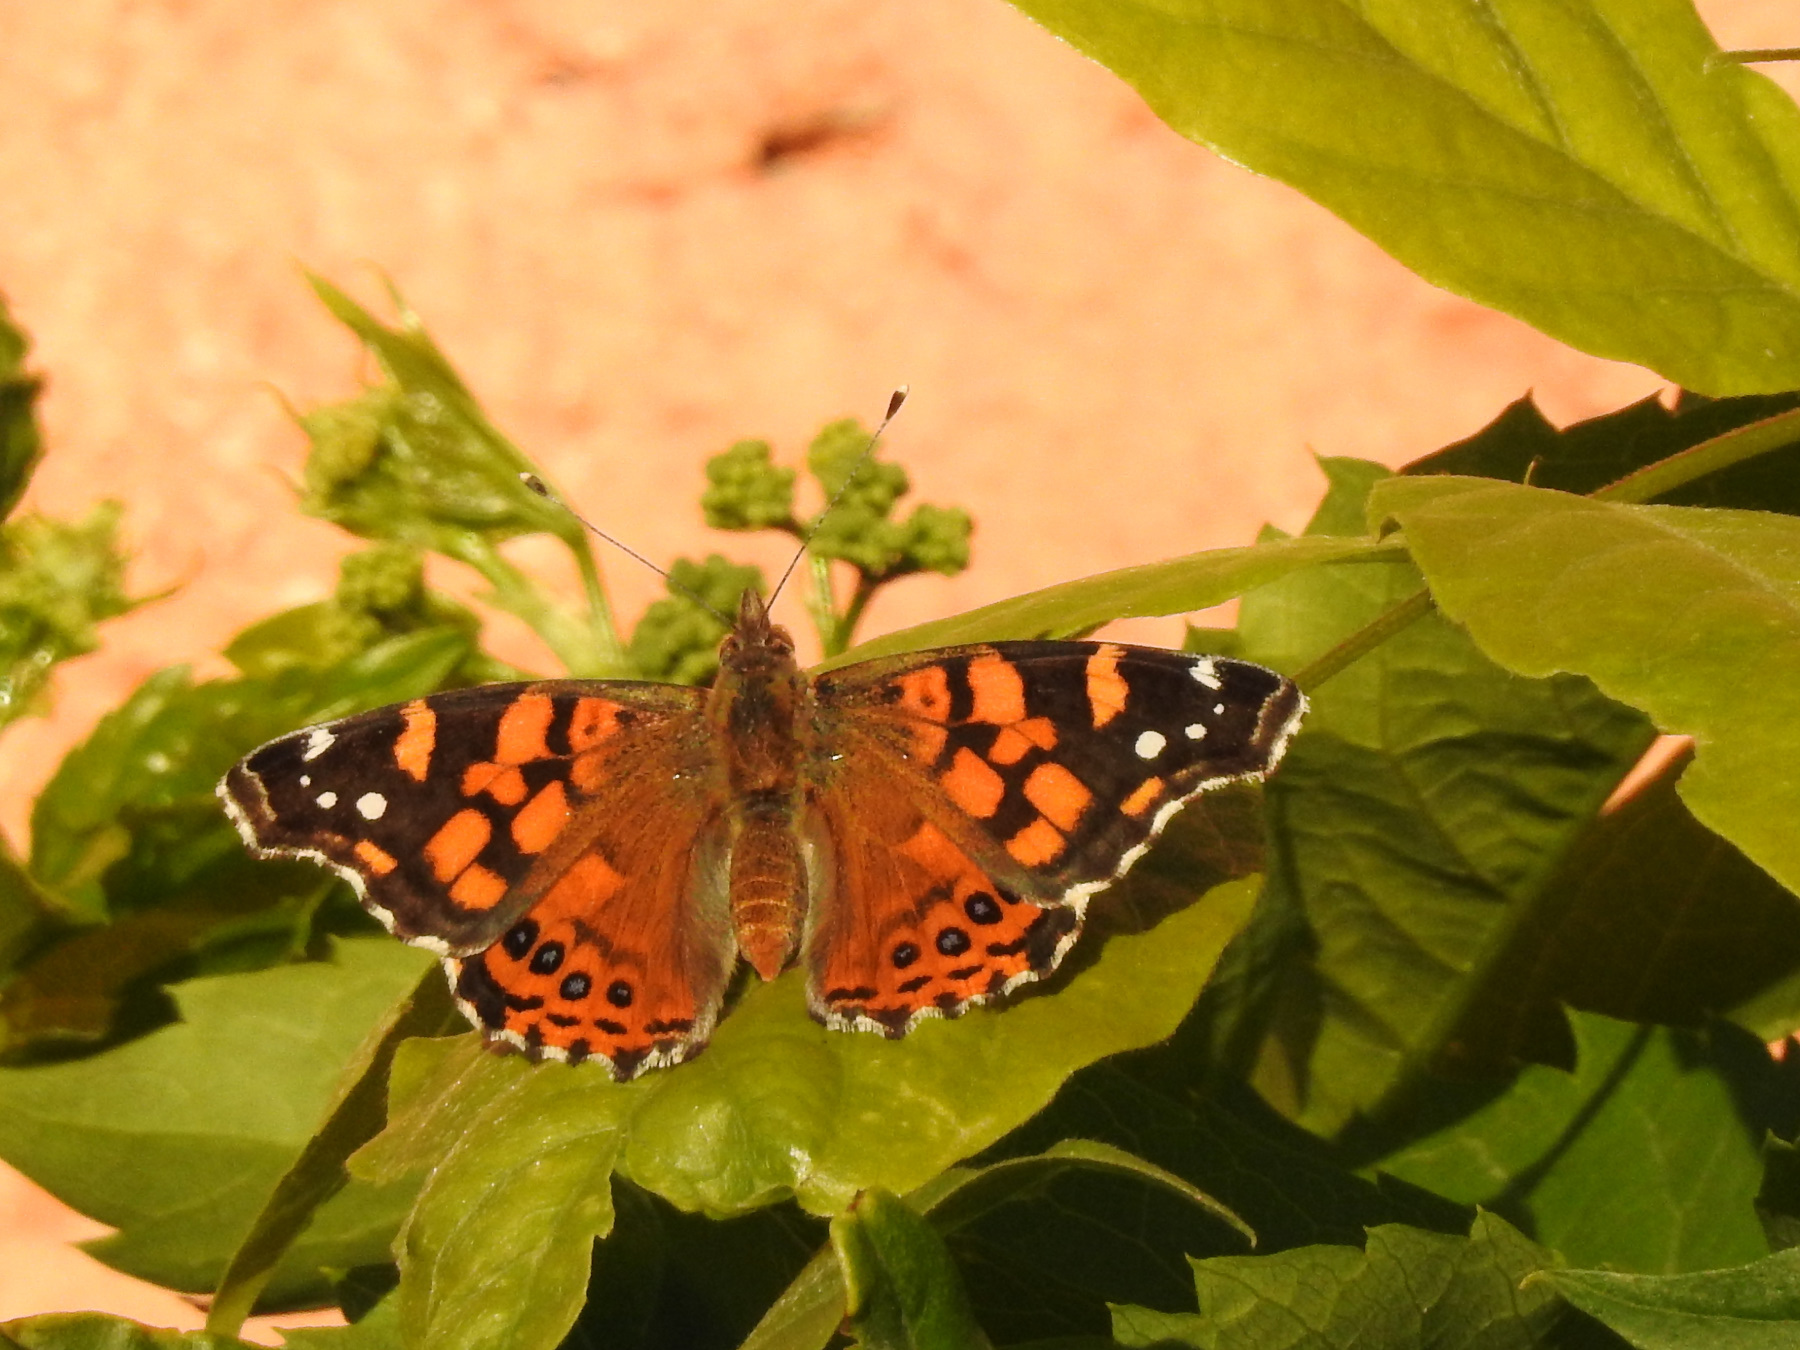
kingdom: Animalia
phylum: Arthropoda
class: Insecta
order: Lepidoptera
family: Nymphalidae
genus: Vanessa
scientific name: Vanessa carye
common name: Subtropical lady
